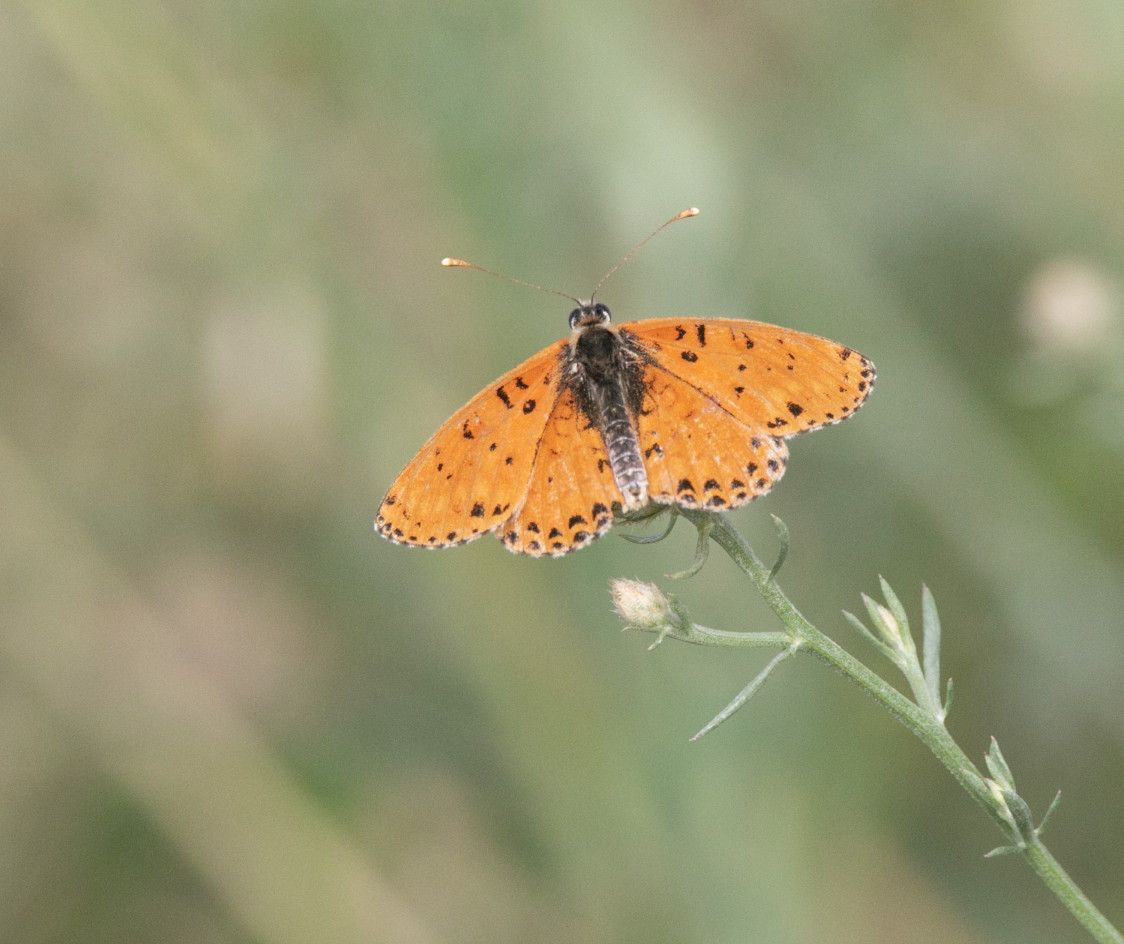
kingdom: Animalia
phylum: Arthropoda
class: Insecta
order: Lepidoptera
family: Nymphalidae
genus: Melitaea
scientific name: Melitaea didyma
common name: Spotted fritillary
